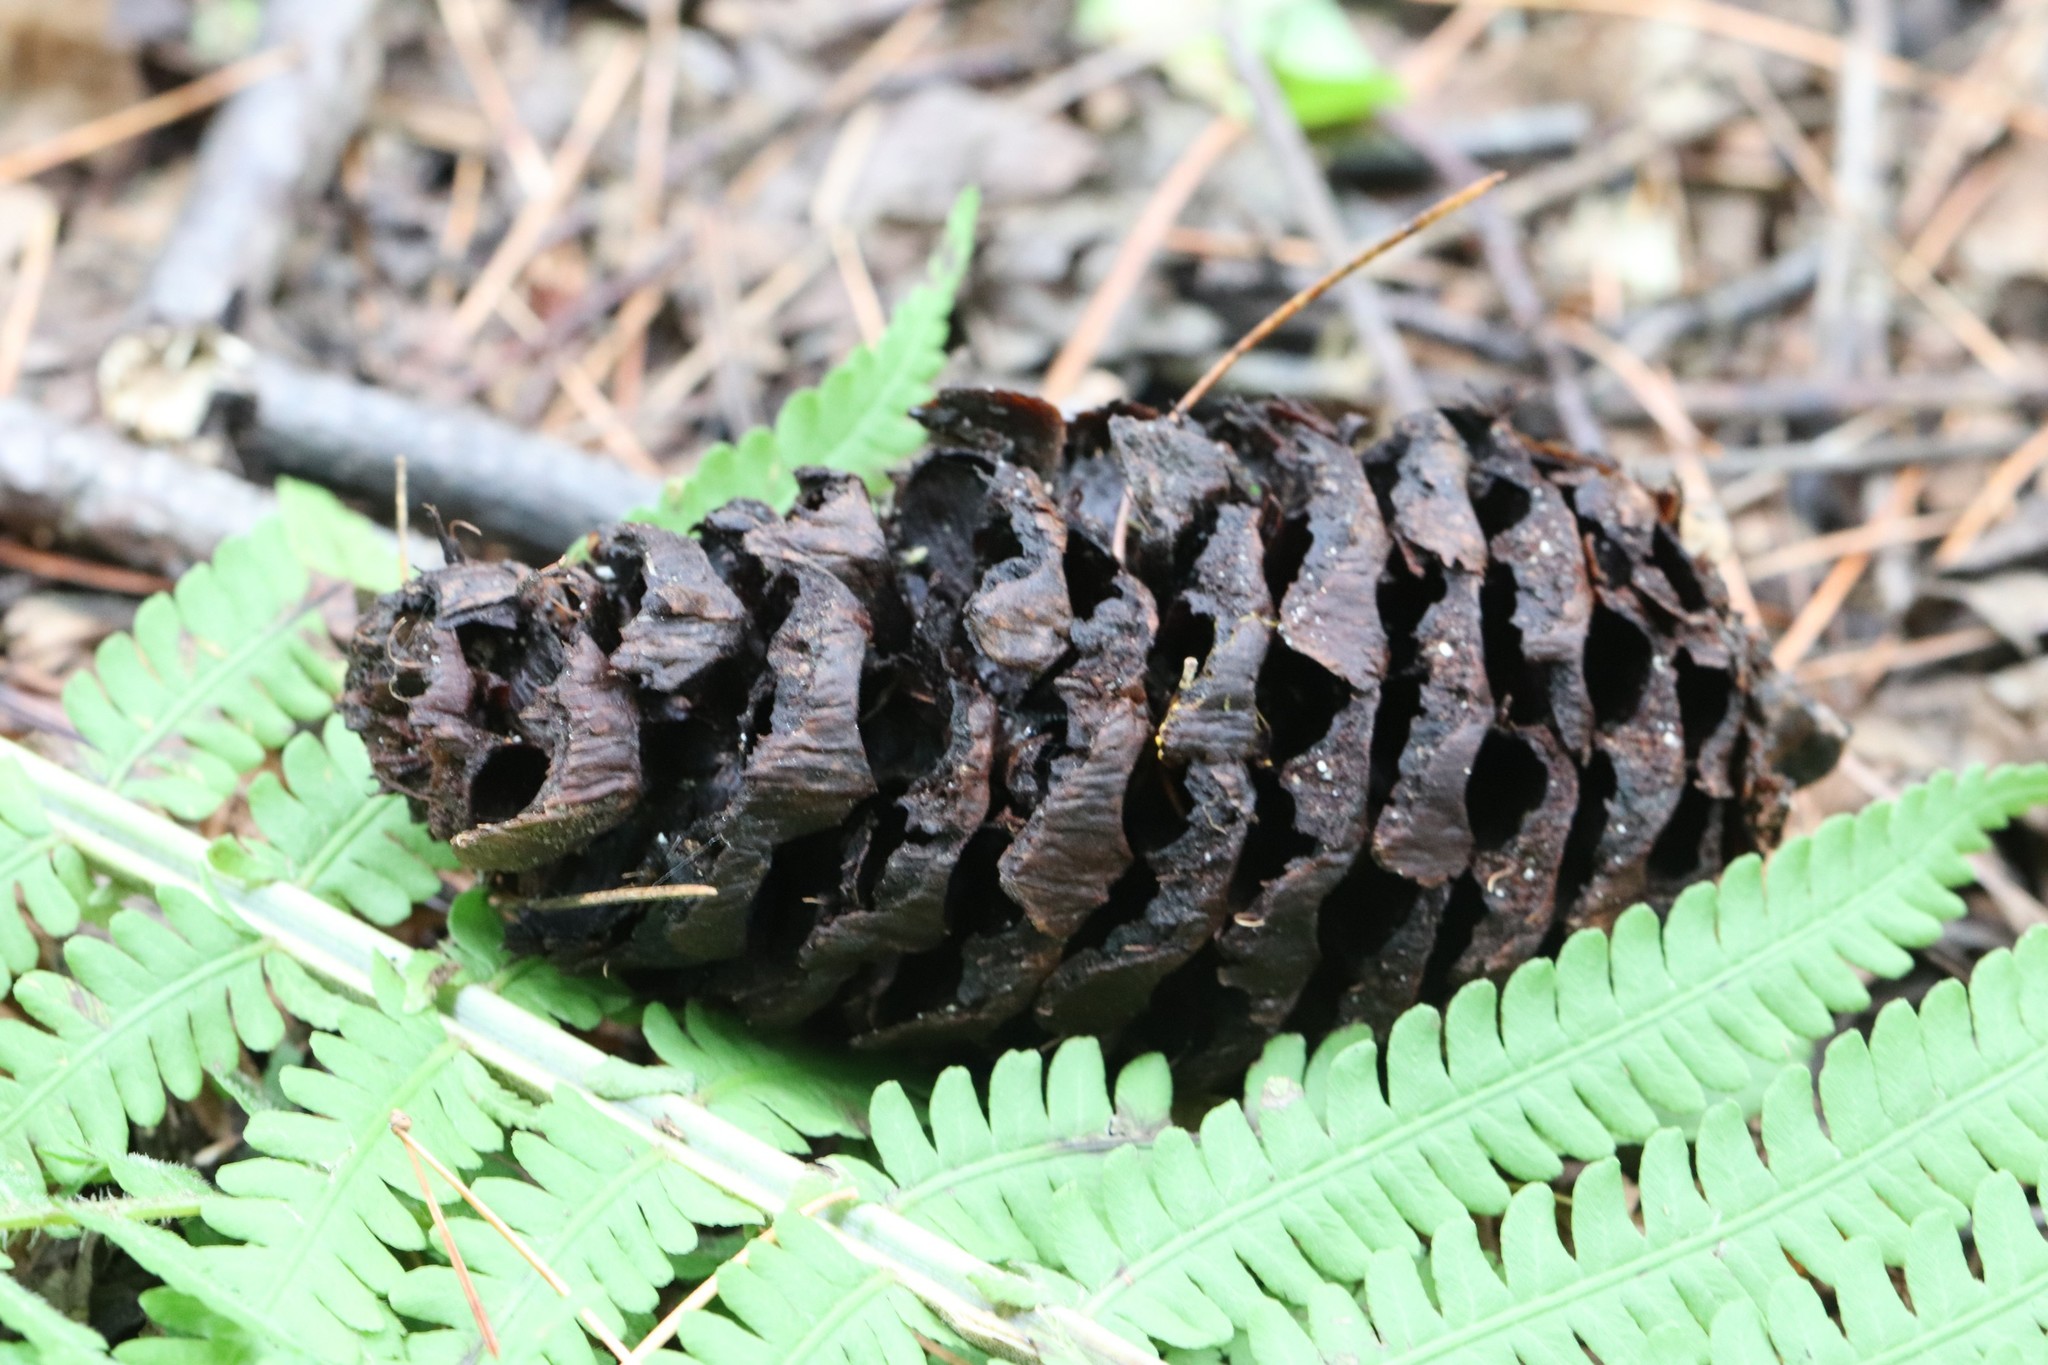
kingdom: Plantae
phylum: Tracheophyta
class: Pinopsida
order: Pinales
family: Pinaceae
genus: Pinus
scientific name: Pinus koraiensis
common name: Korean pine
